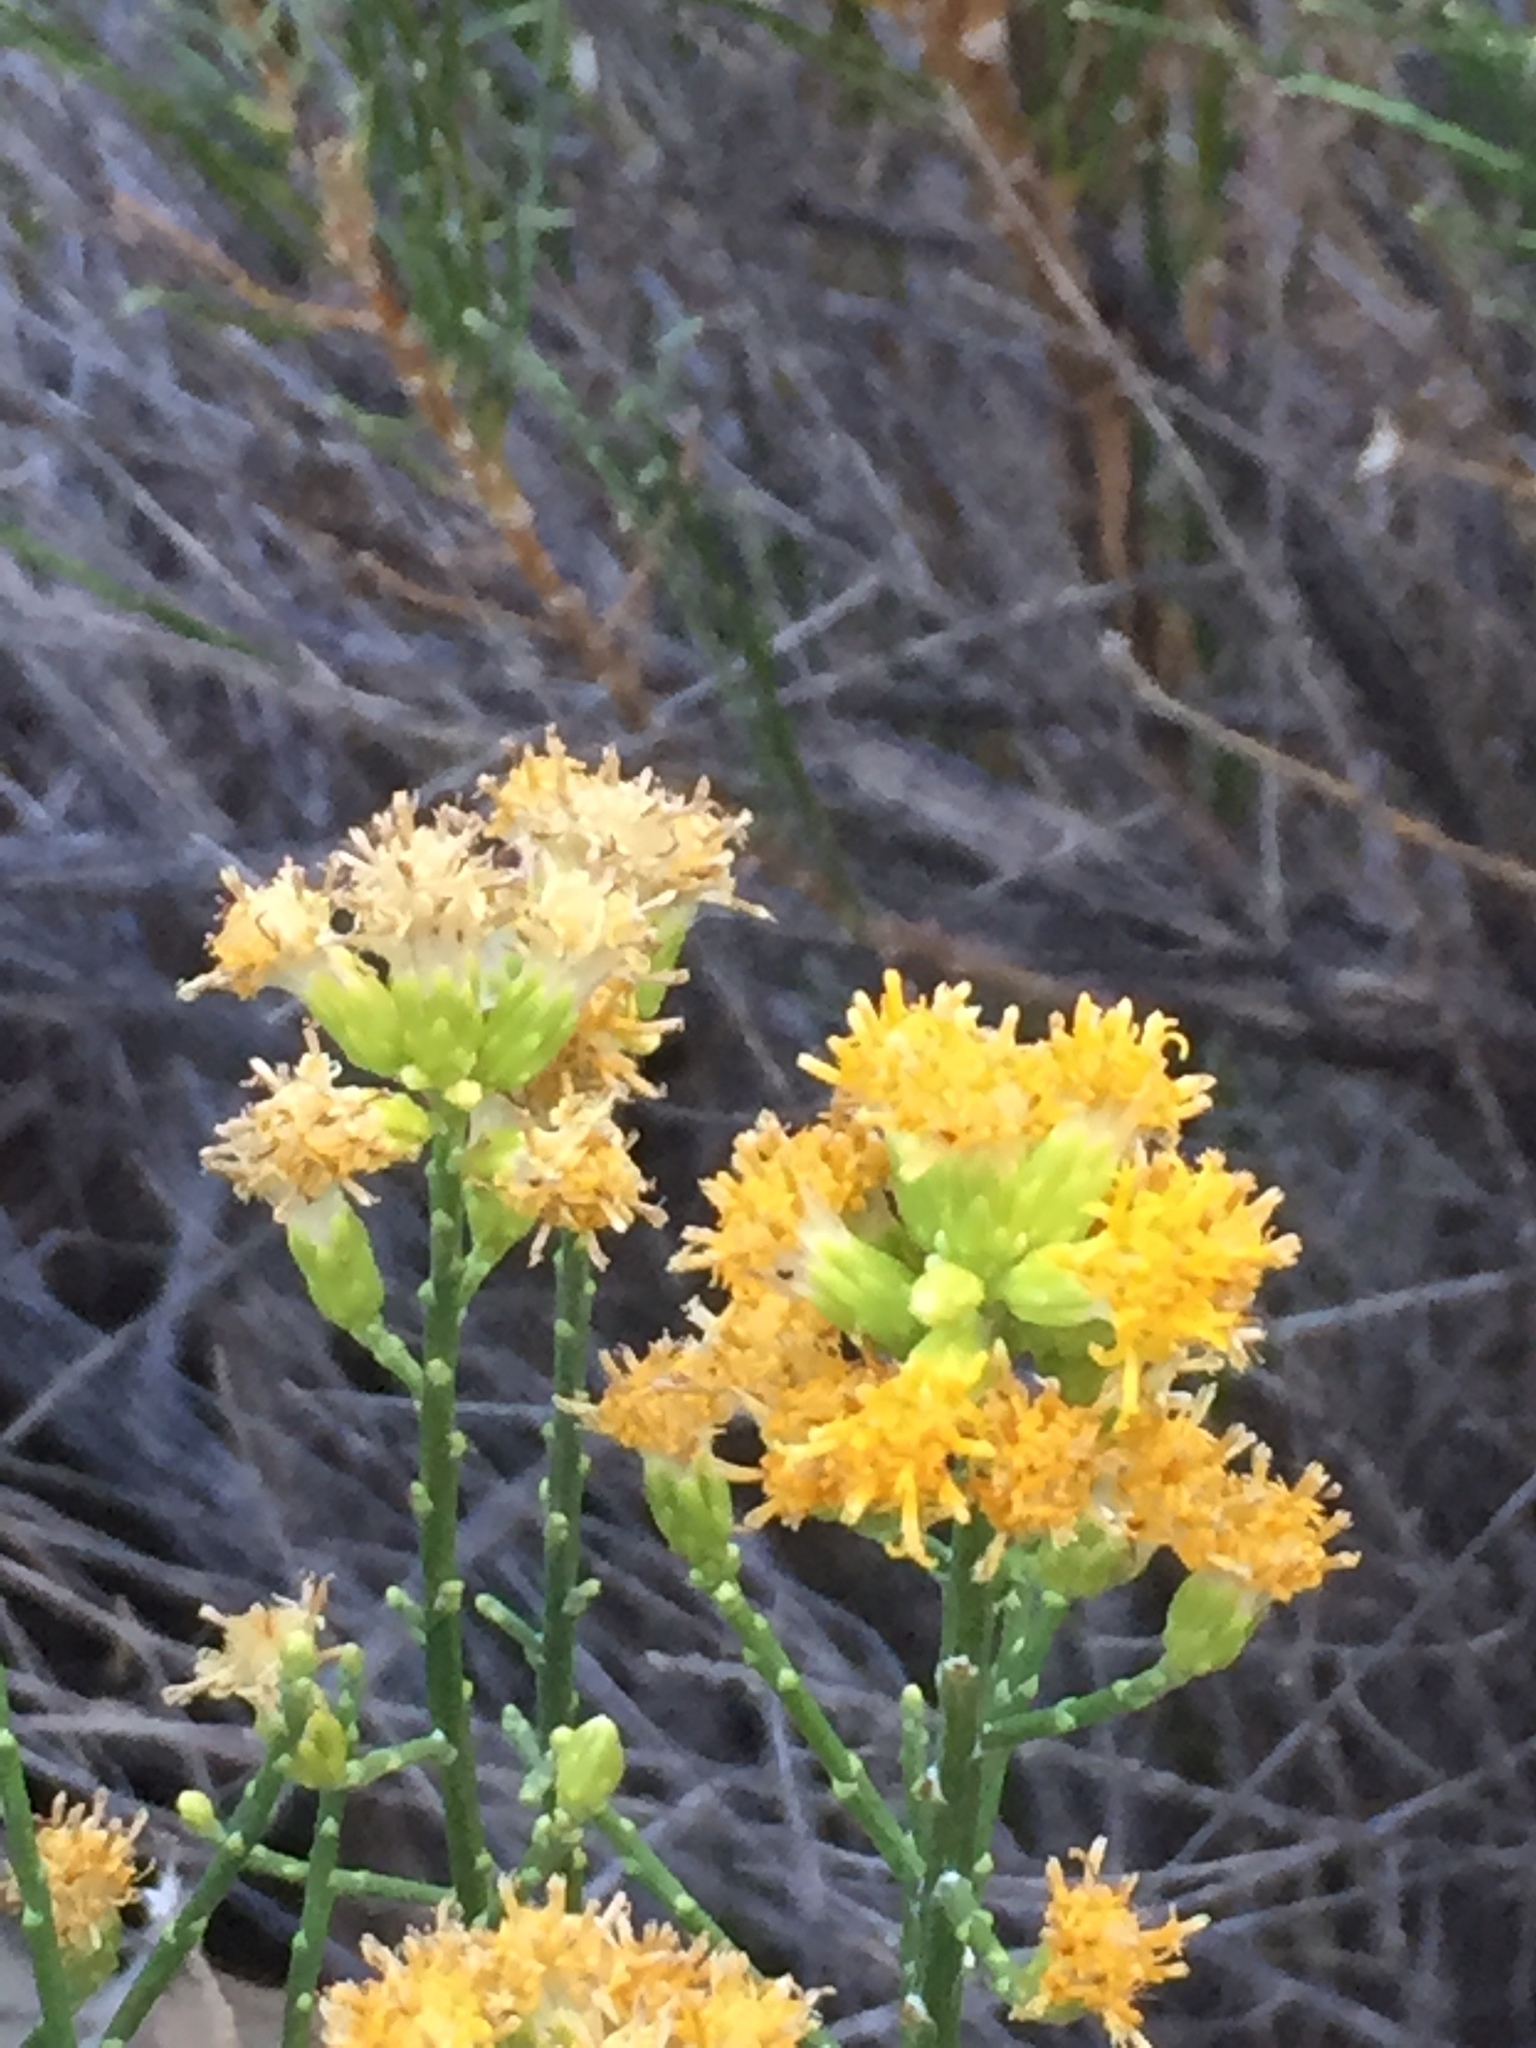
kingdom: Plantae
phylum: Tracheophyta
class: Magnoliopsida
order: Asterales
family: Asteraceae
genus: Lepidospartum
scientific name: Lepidospartum squamatum
